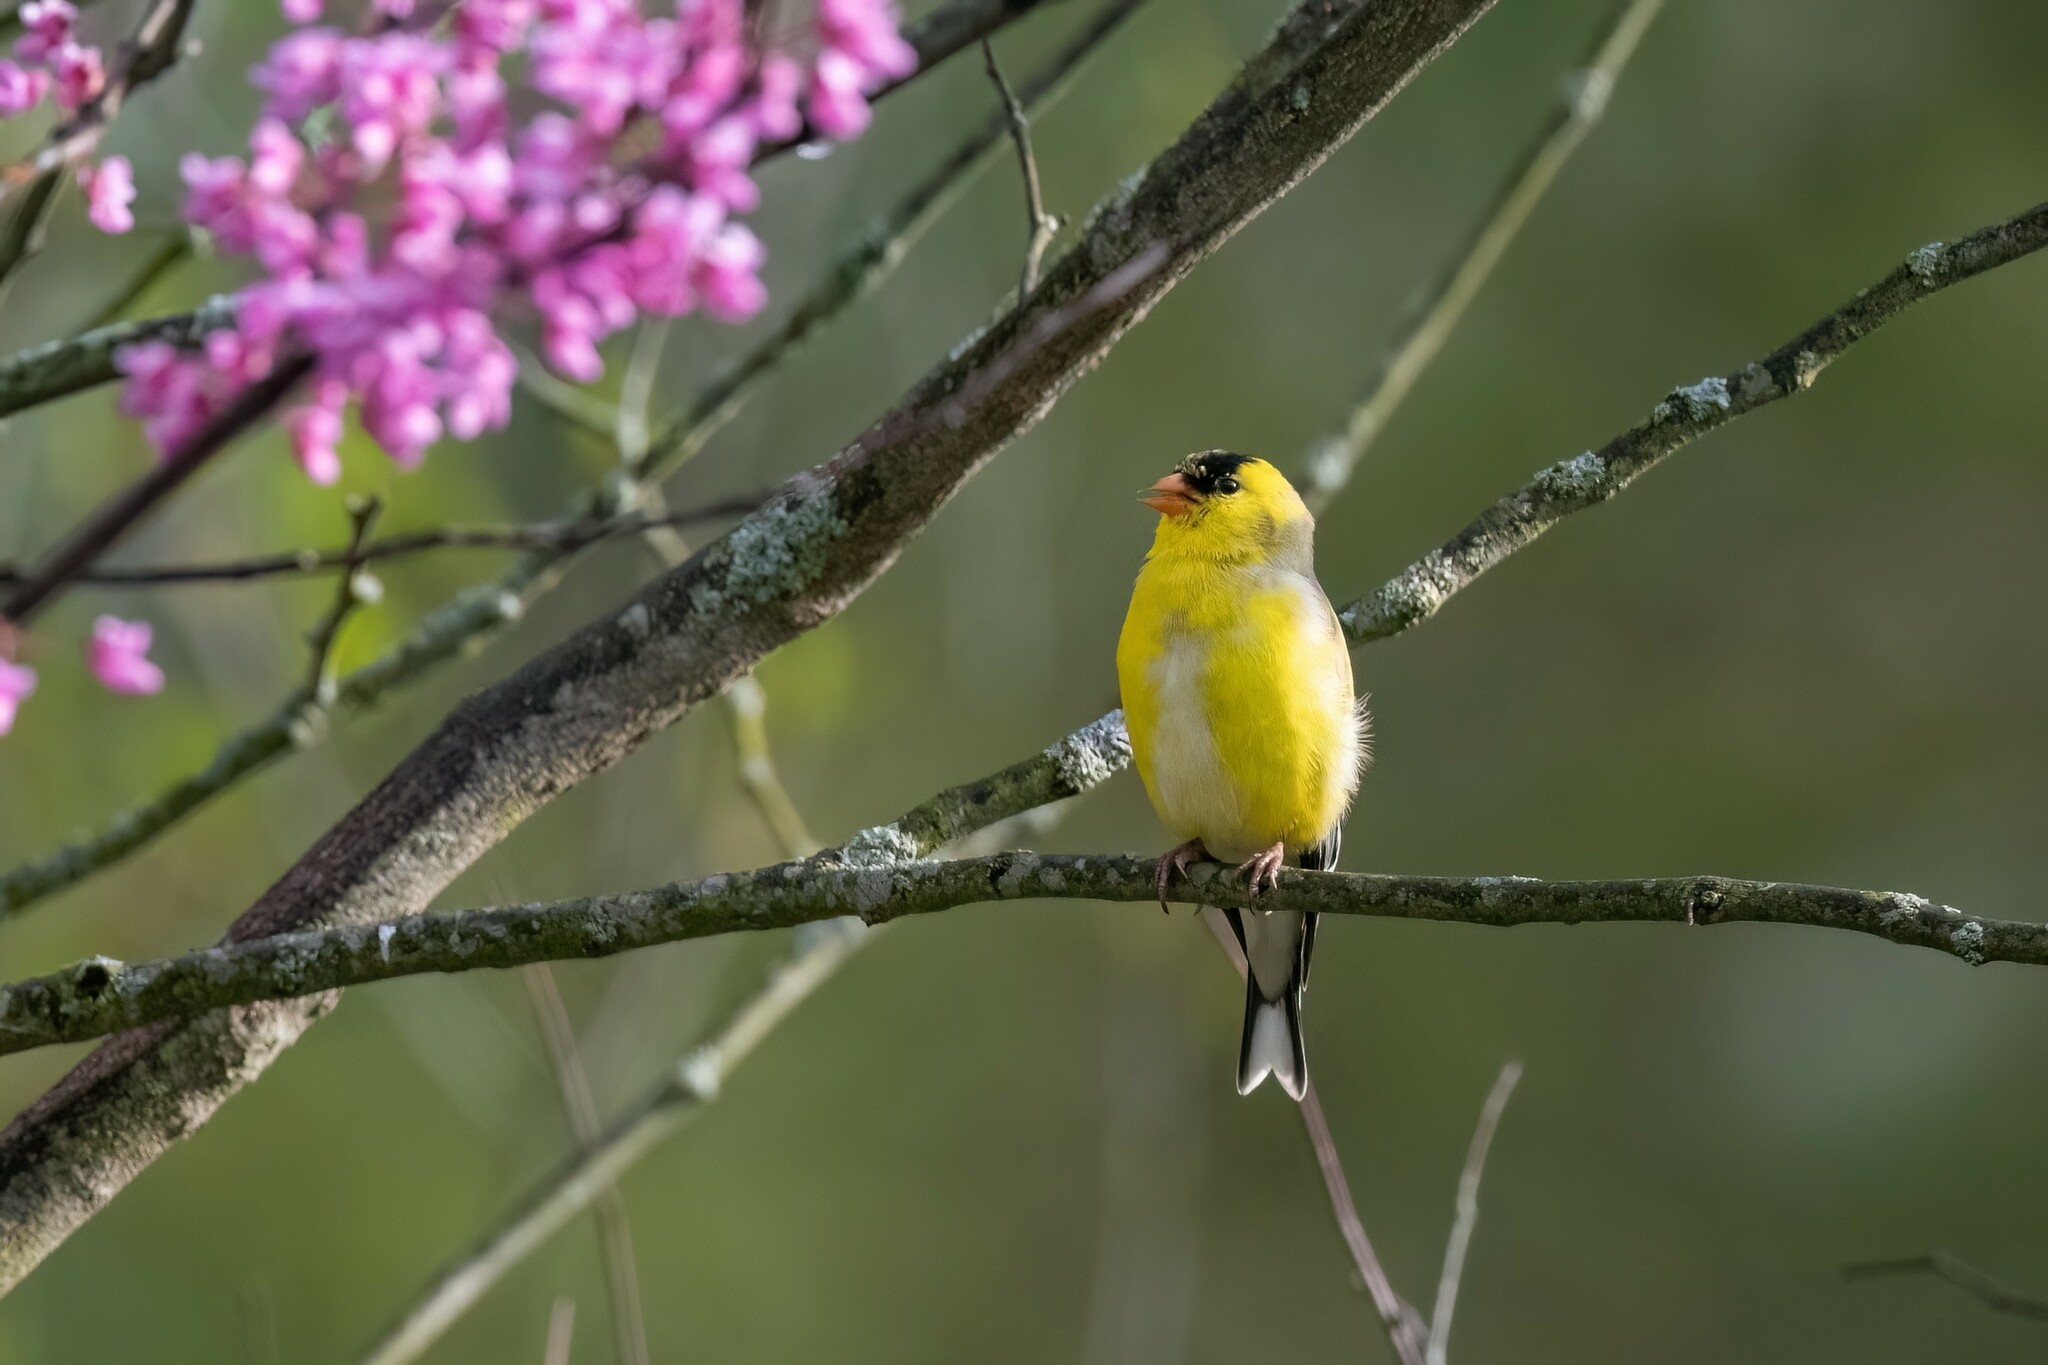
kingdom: Animalia
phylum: Chordata
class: Aves
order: Passeriformes
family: Fringillidae
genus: Spinus
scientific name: Spinus tristis
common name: American goldfinch
